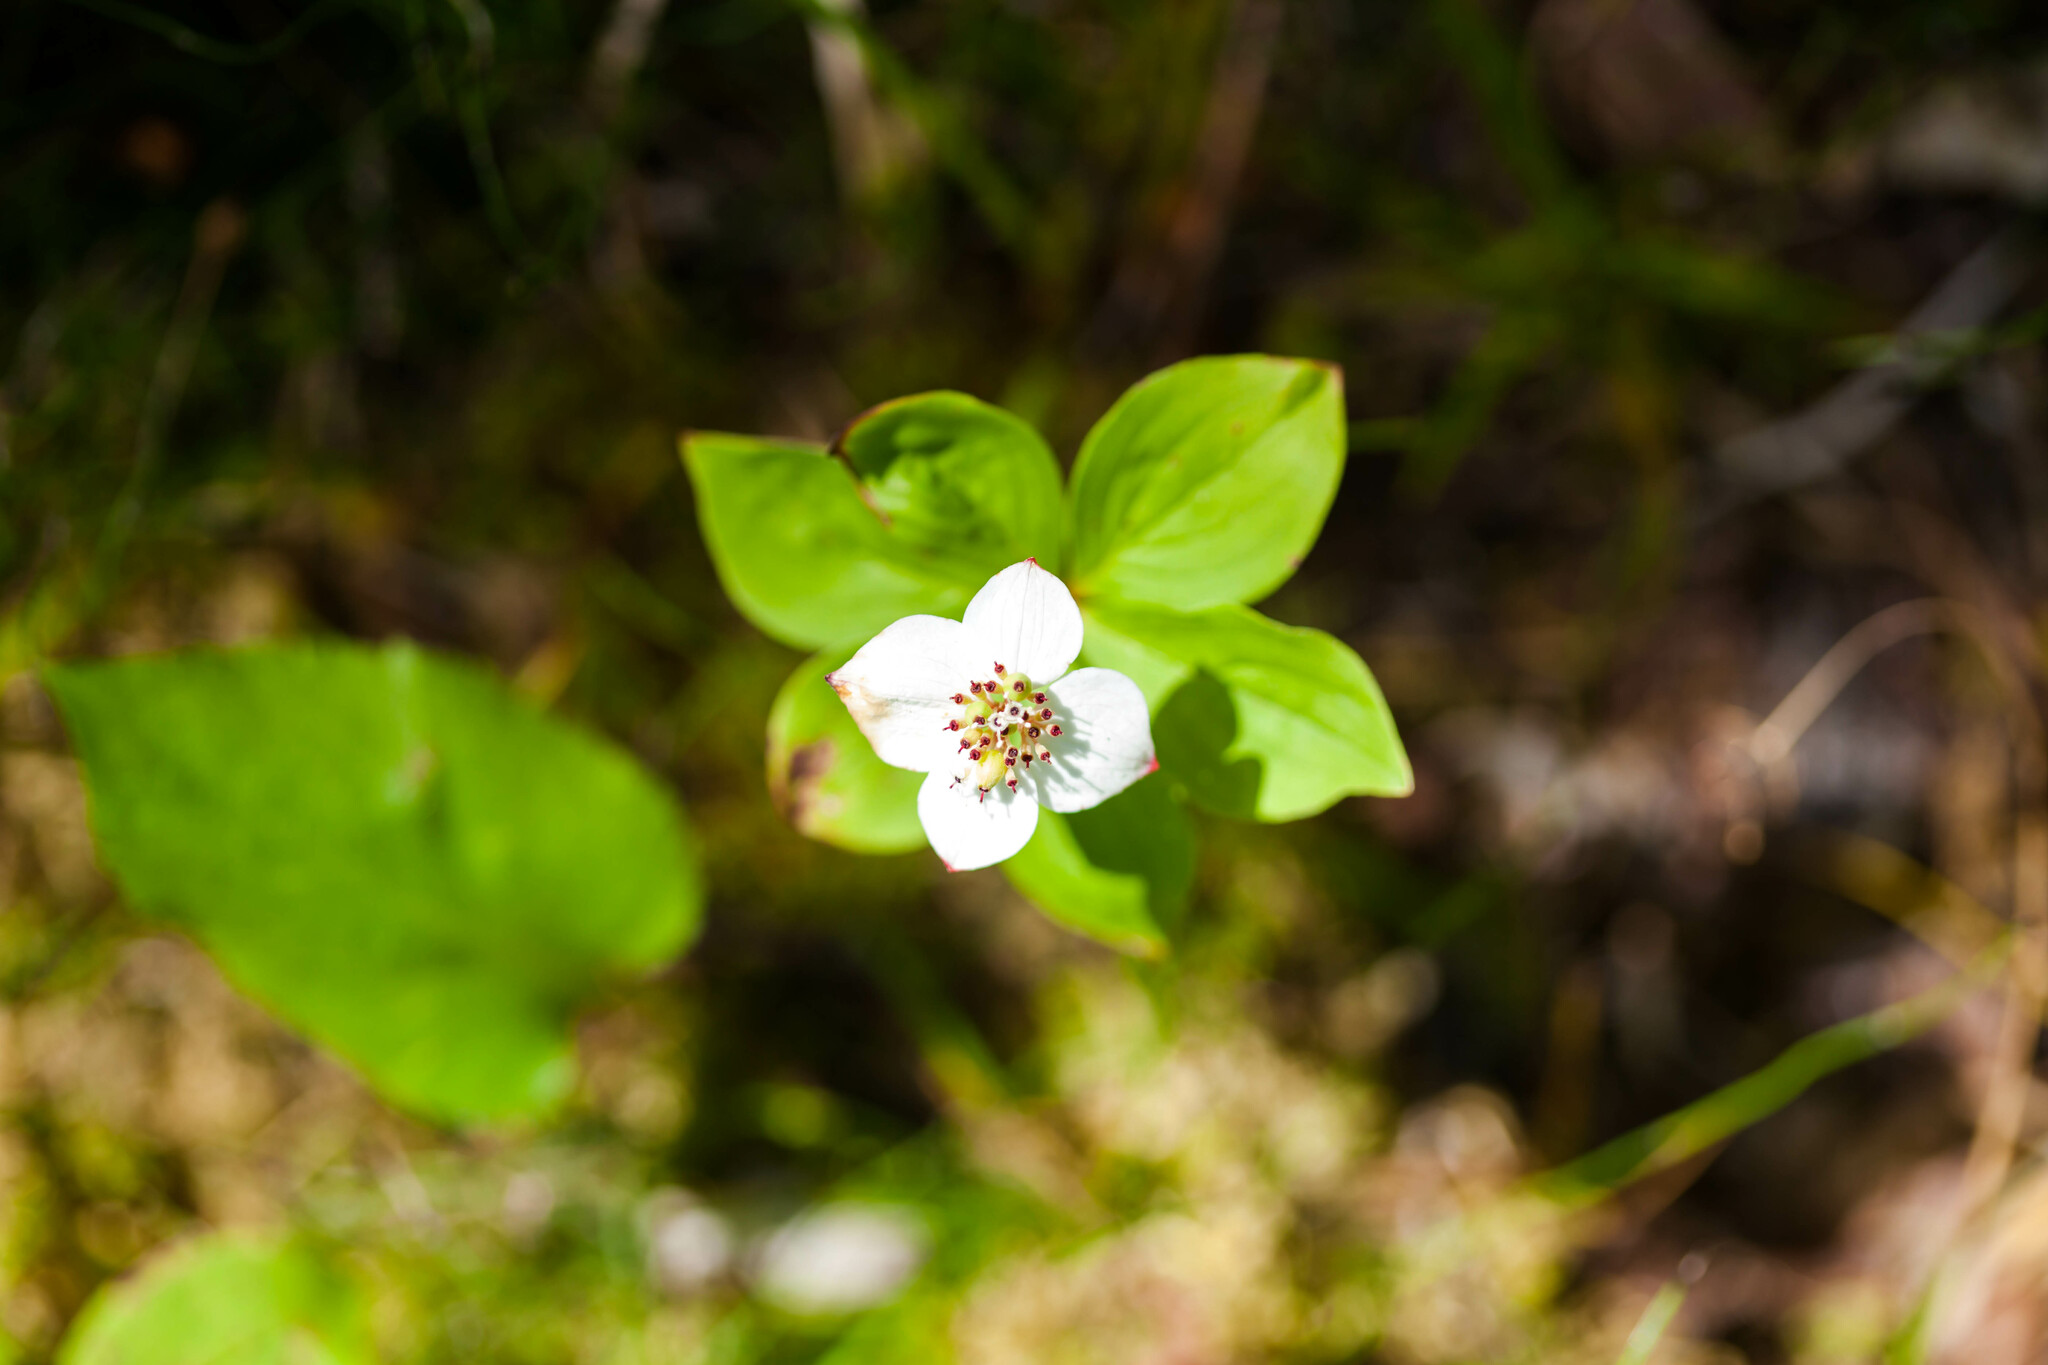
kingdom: Plantae
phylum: Tracheophyta
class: Magnoliopsida
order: Cornales
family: Cornaceae
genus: Cornus
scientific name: Cornus canadensis
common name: Creeping dogwood
